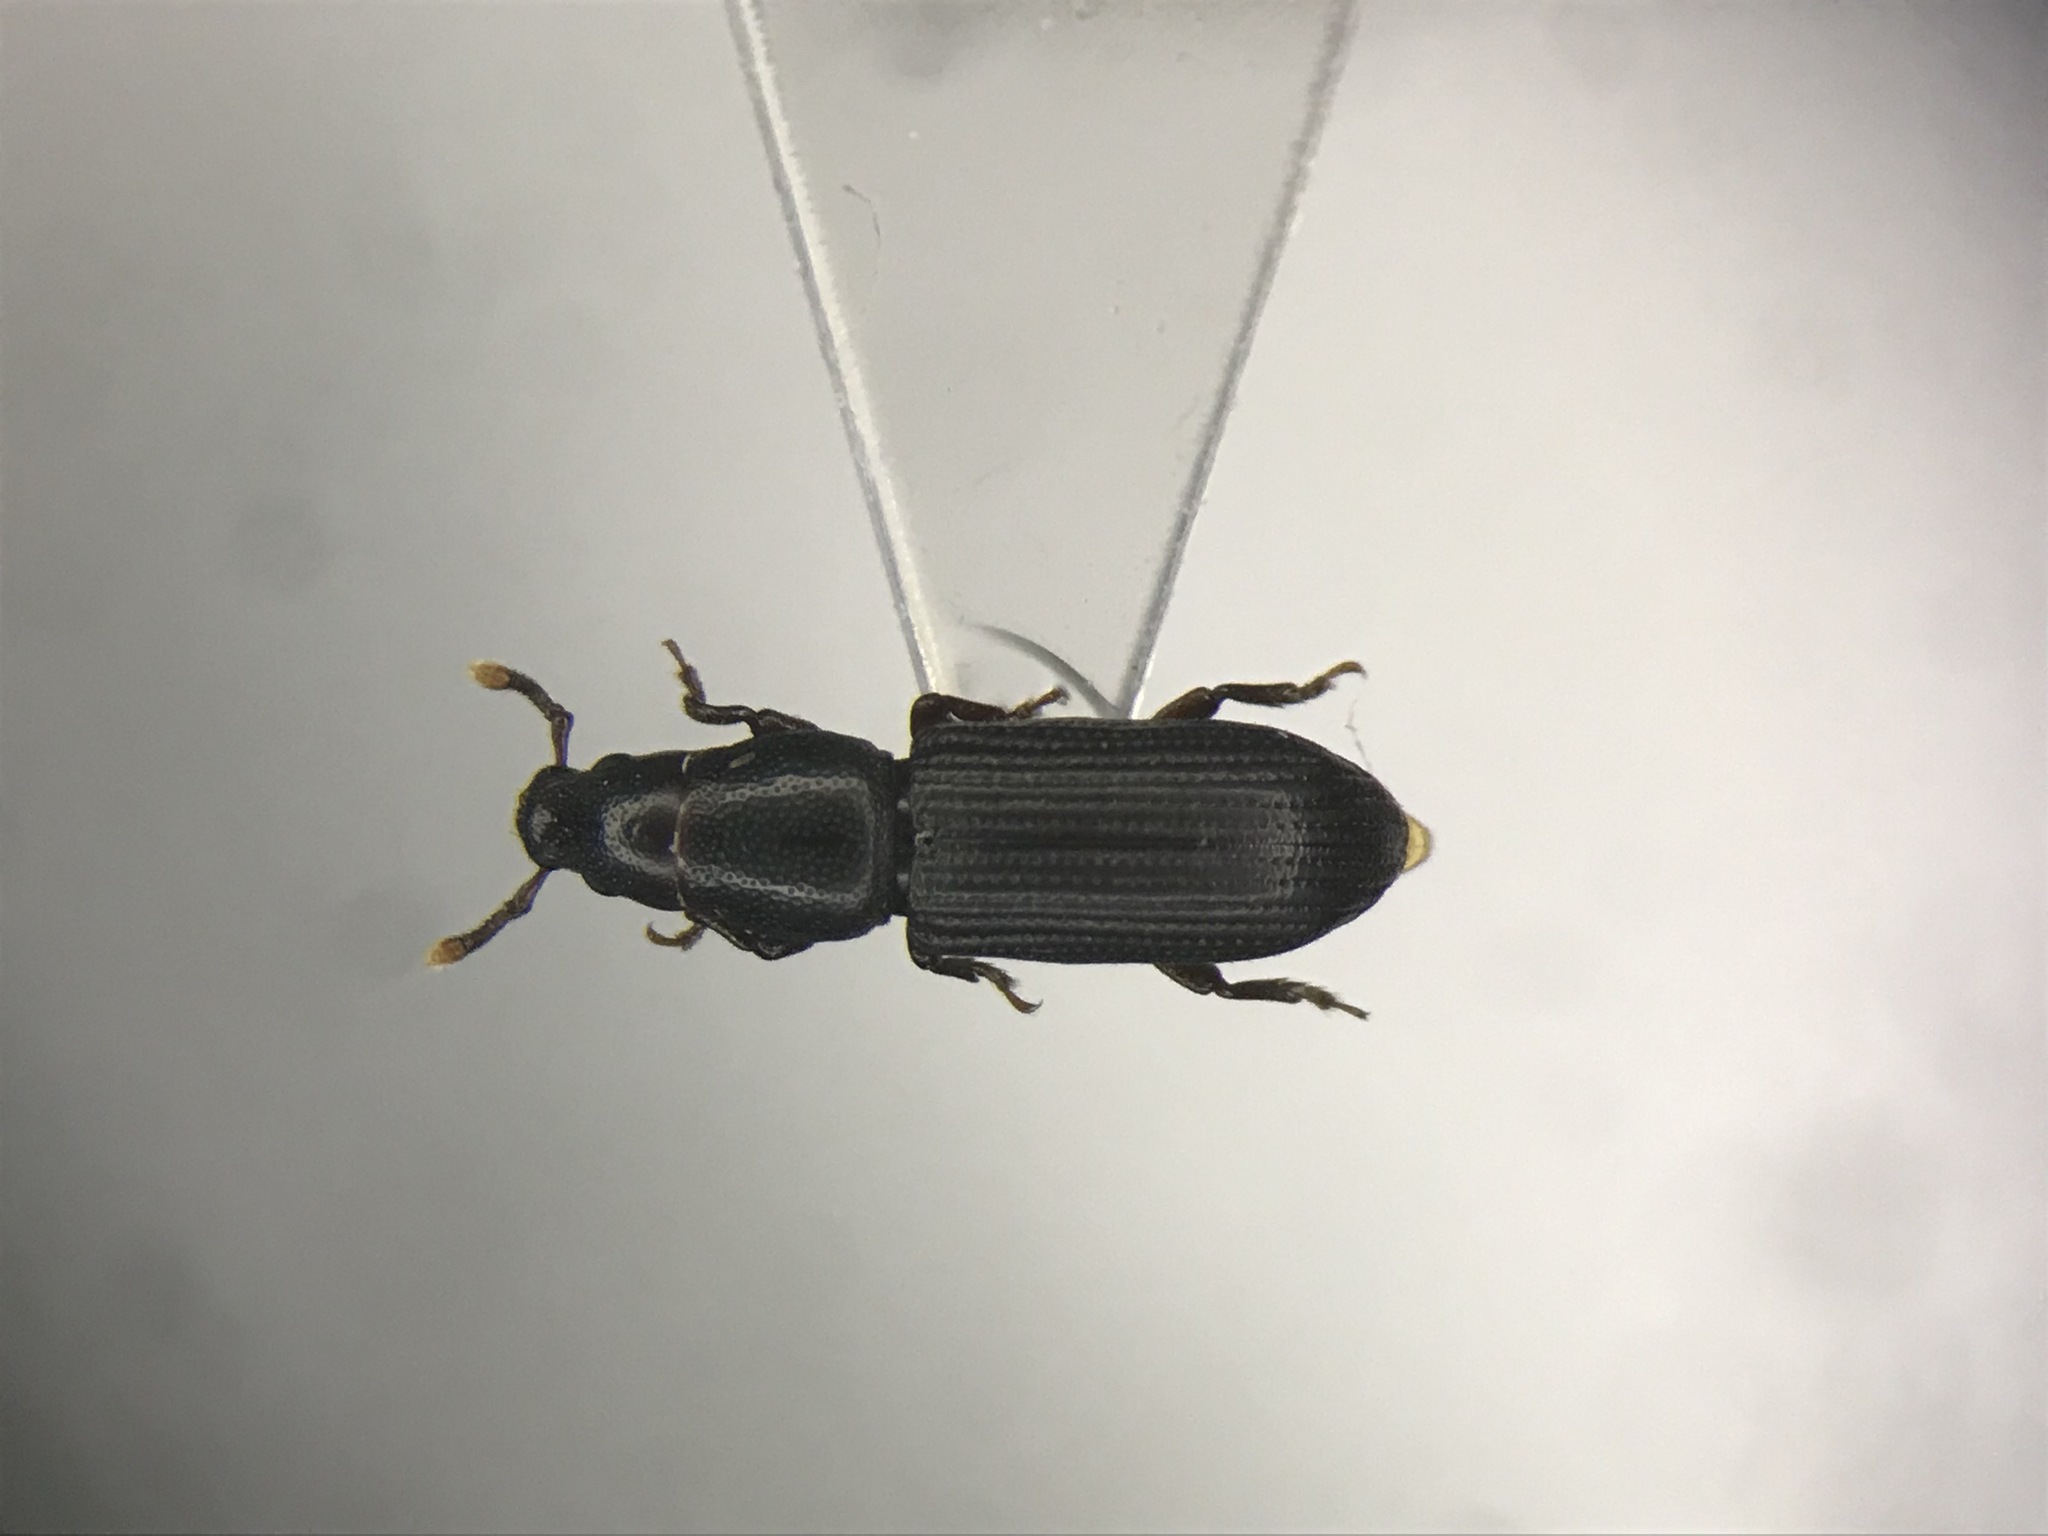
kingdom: Animalia
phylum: Arthropoda
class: Insecta
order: Coleoptera
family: Curculionidae
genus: Rhyncolus
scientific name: Rhyncolus macrops
